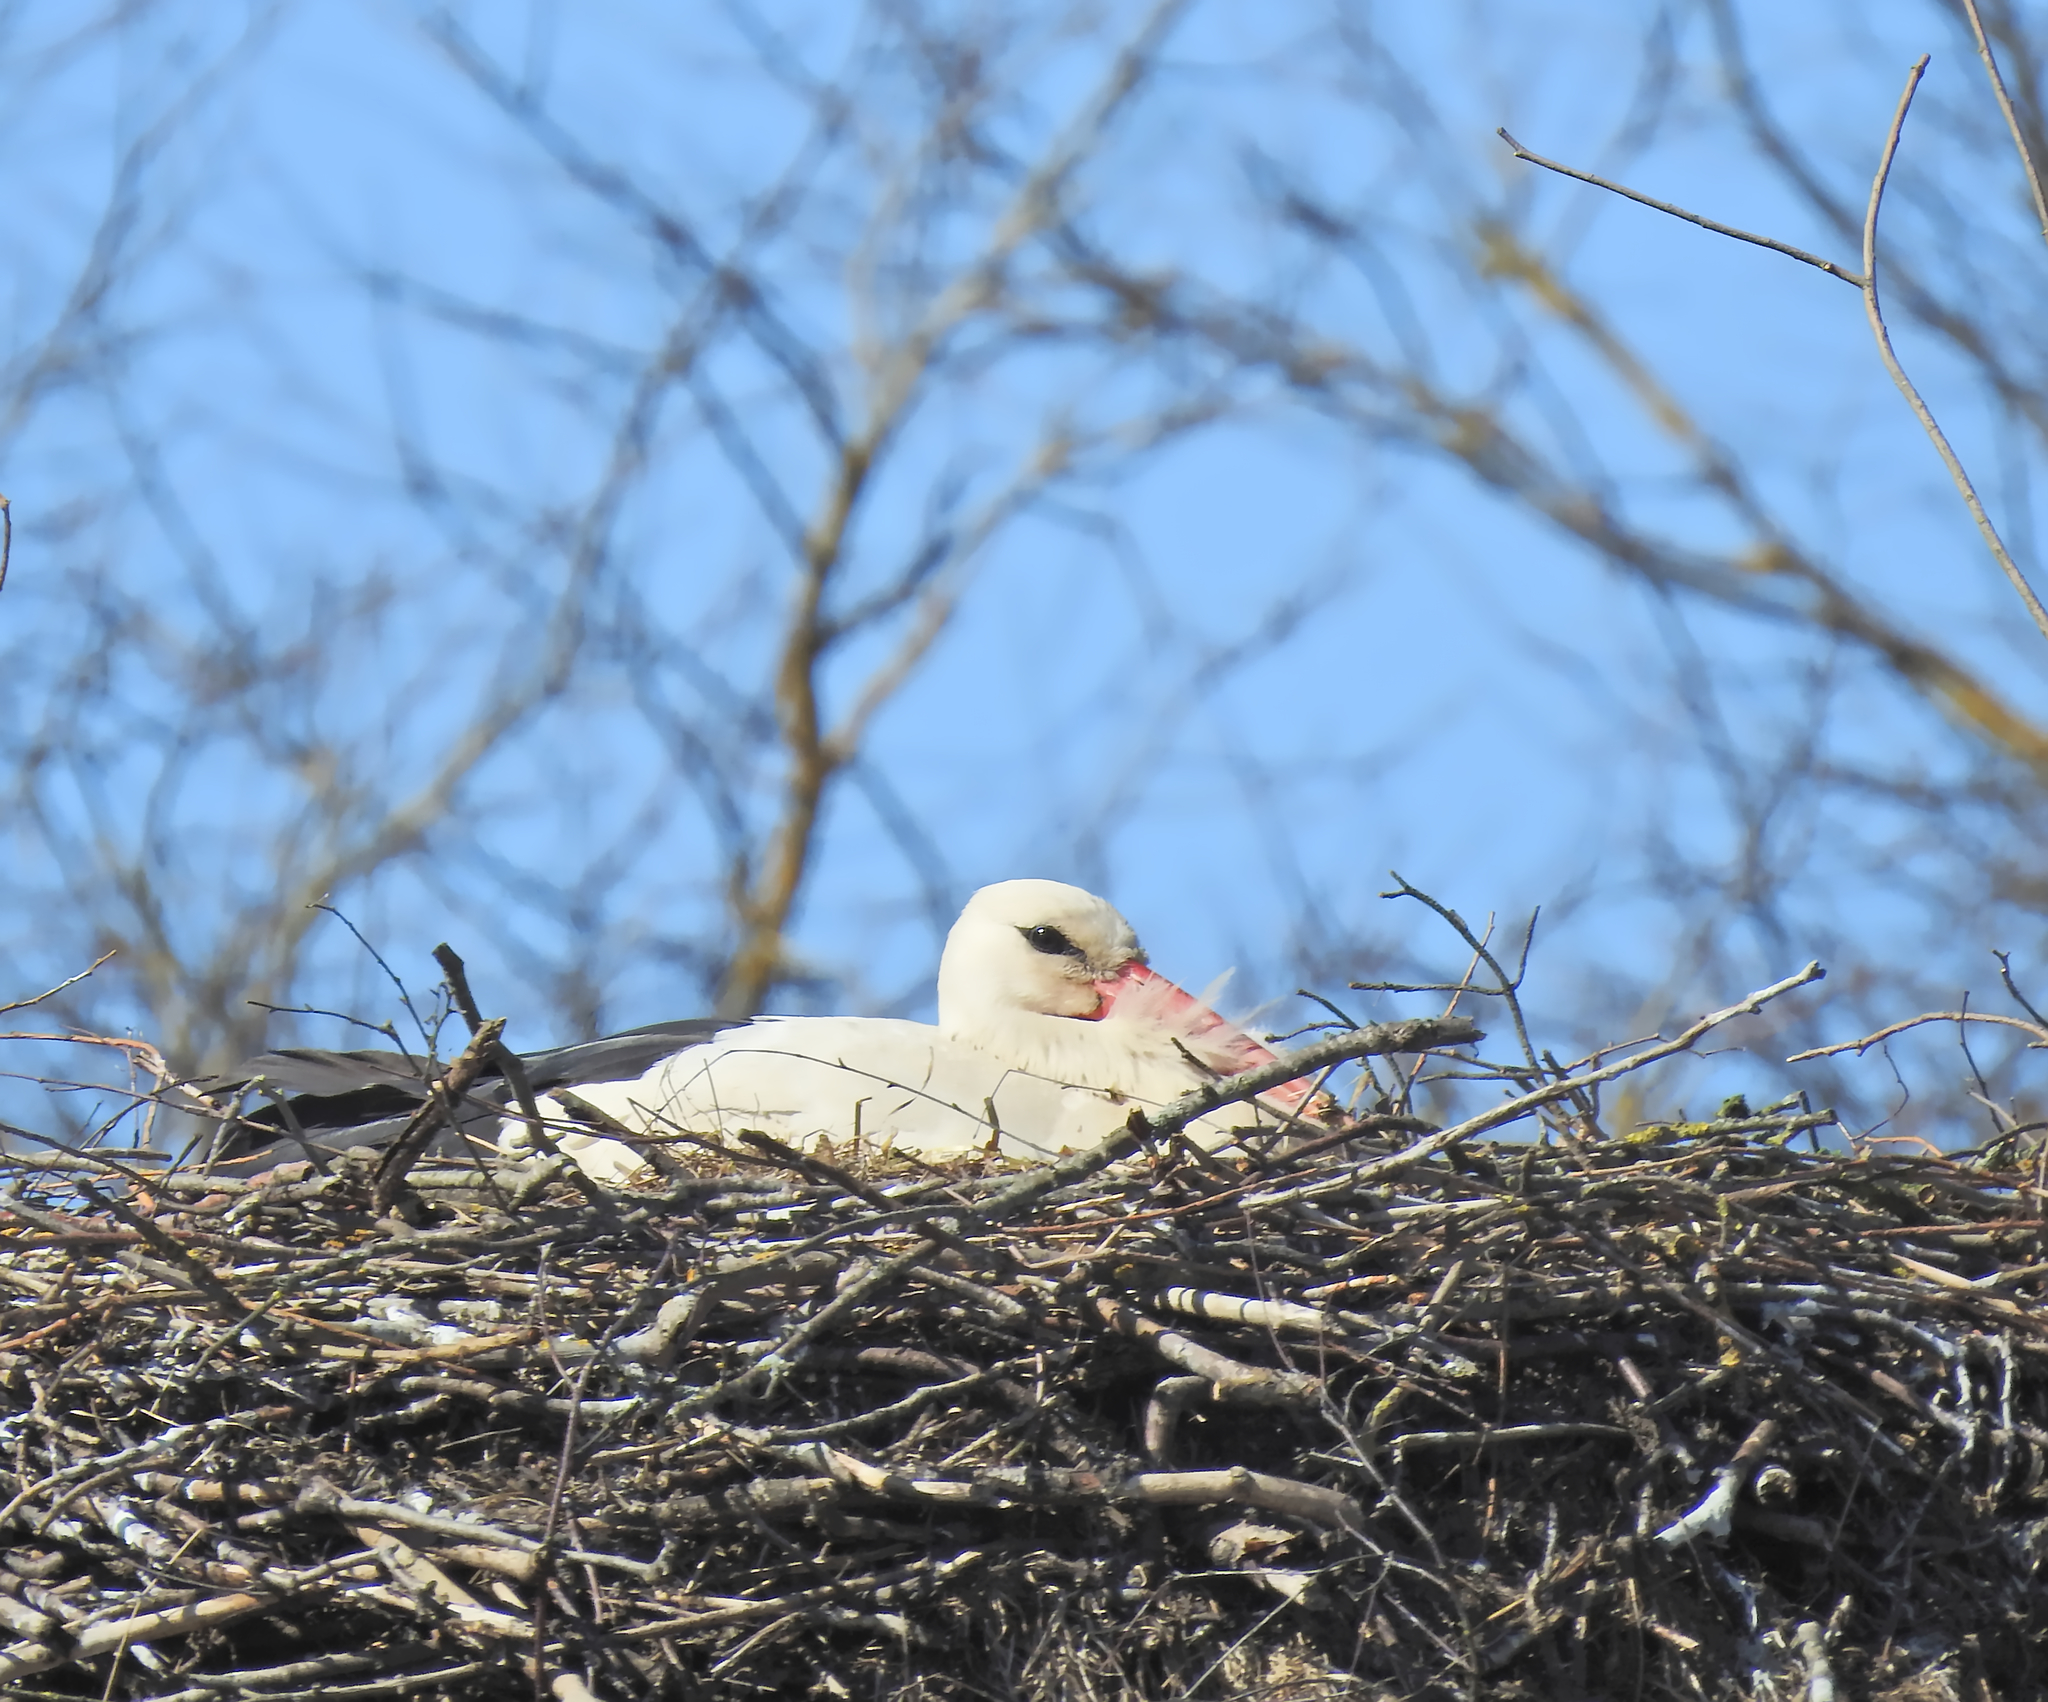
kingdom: Animalia
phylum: Chordata
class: Aves
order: Ciconiiformes
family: Ciconiidae
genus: Ciconia
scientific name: Ciconia ciconia
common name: White stork
